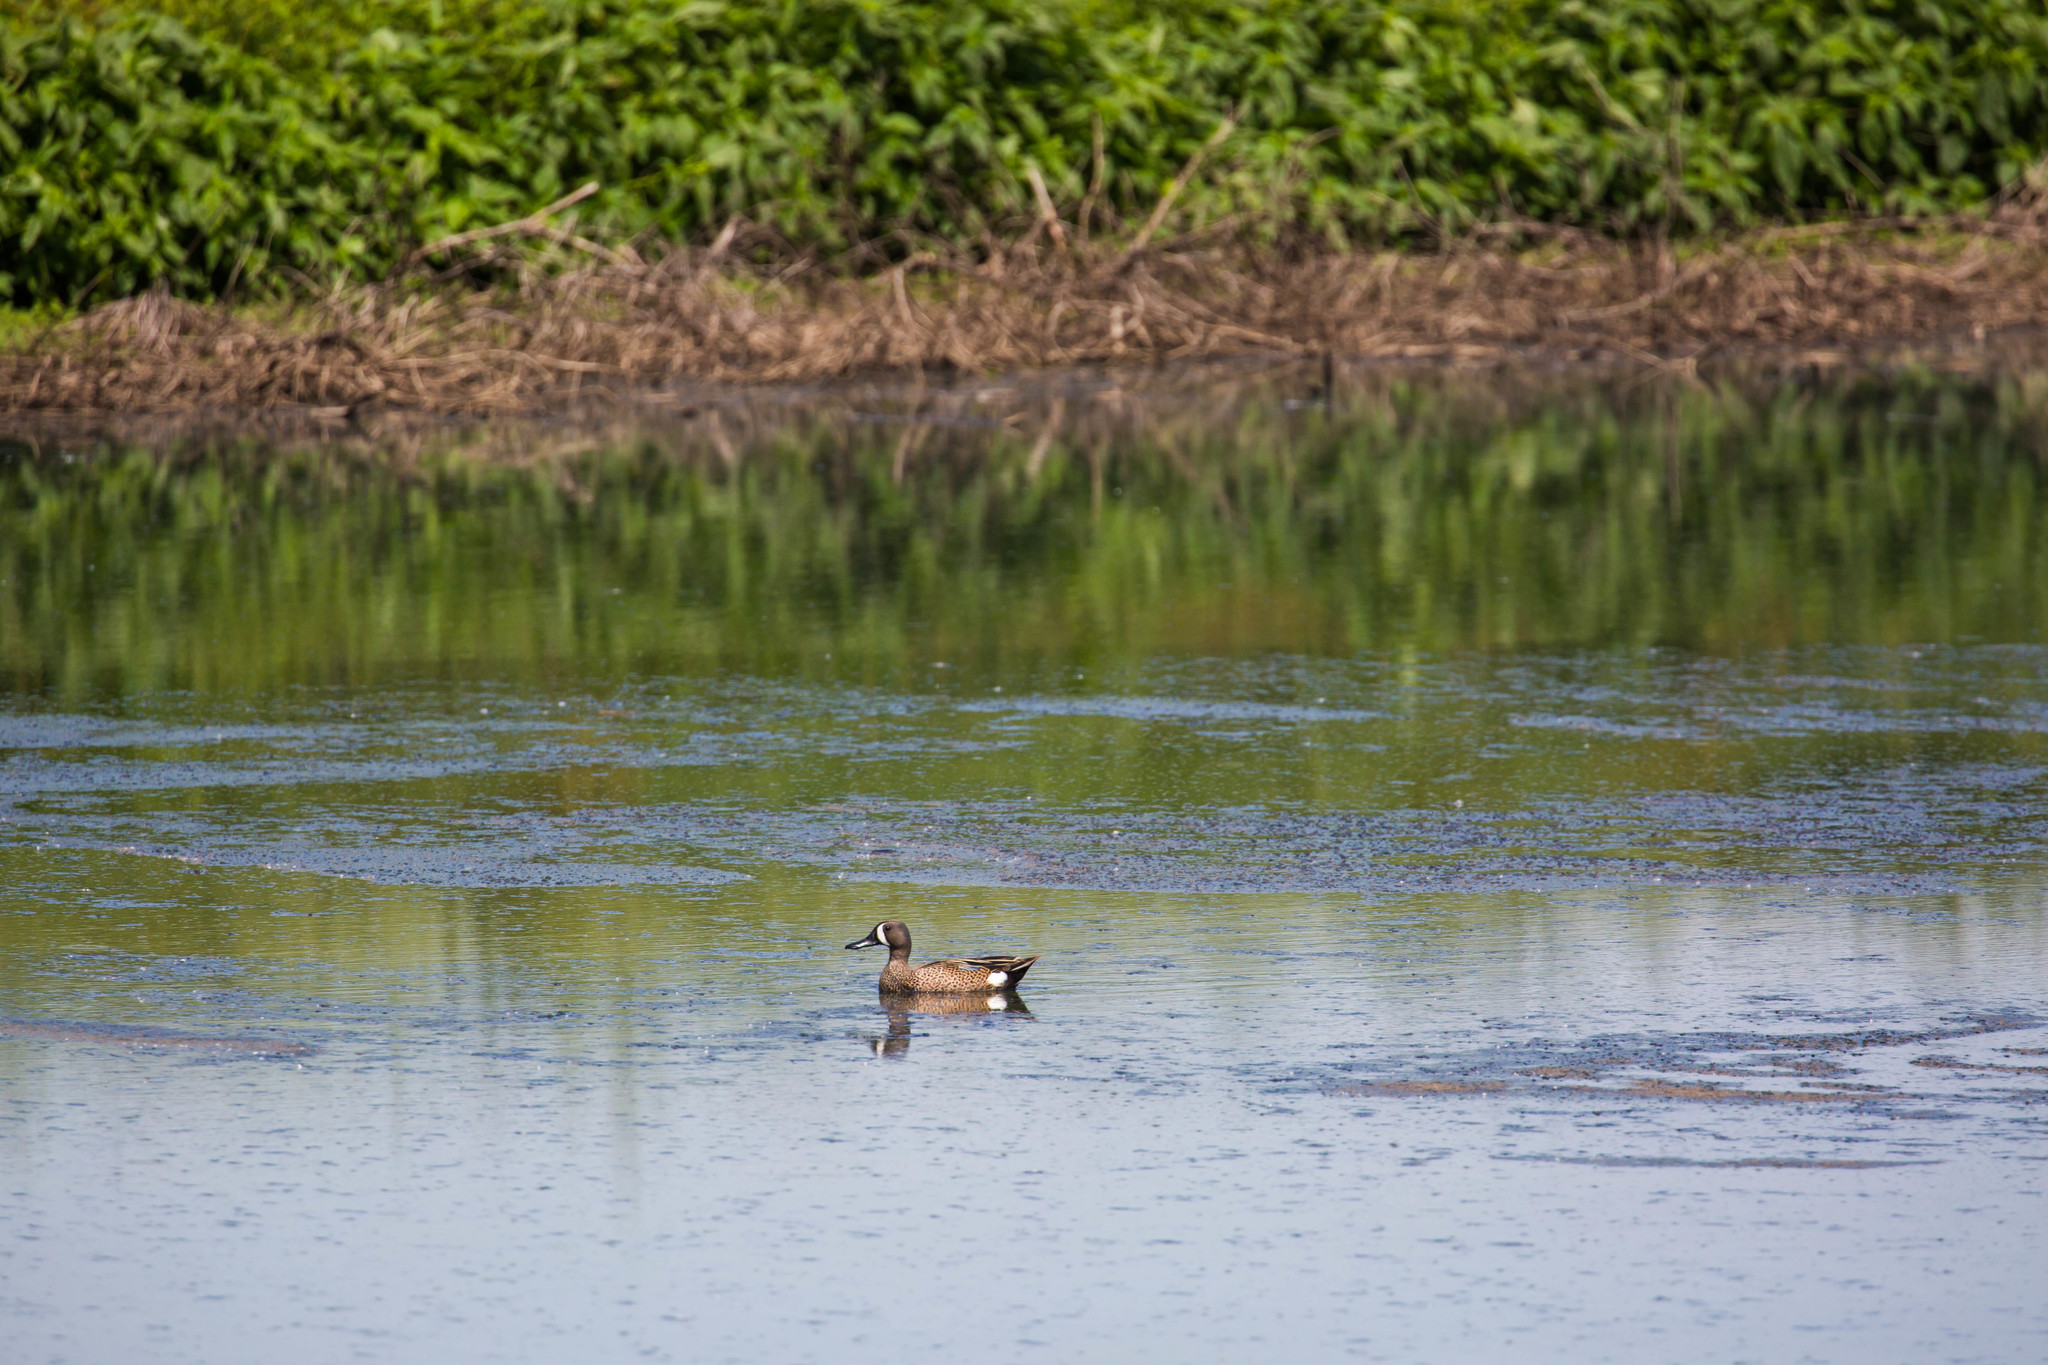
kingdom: Animalia
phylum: Chordata
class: Aves
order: Anseriformes
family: Anatidae
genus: Spatula
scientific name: Spatula discors
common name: Blue-winged teal
